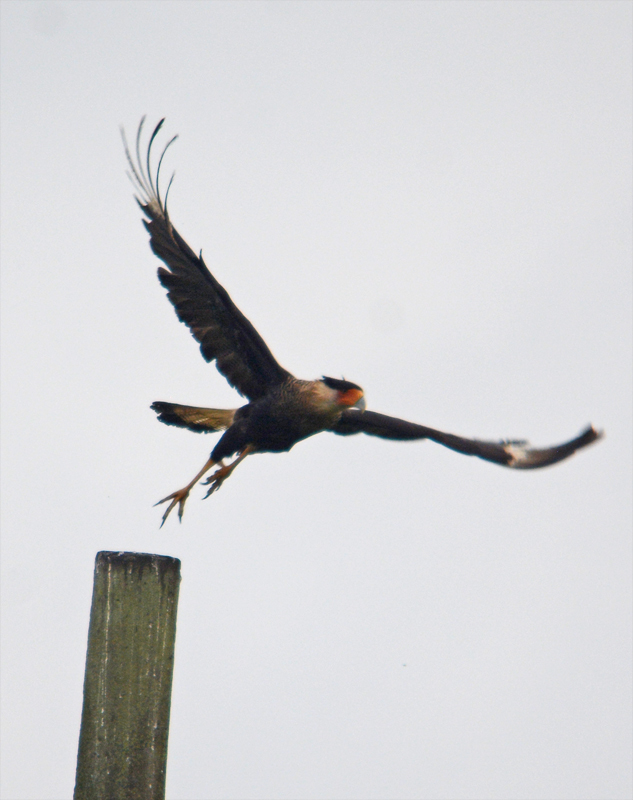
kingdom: Animalia
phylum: Chordata
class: Aves
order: Falconiformes
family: Falconidae
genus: Caracara
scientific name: Caracara plancus
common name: Southern caracara
